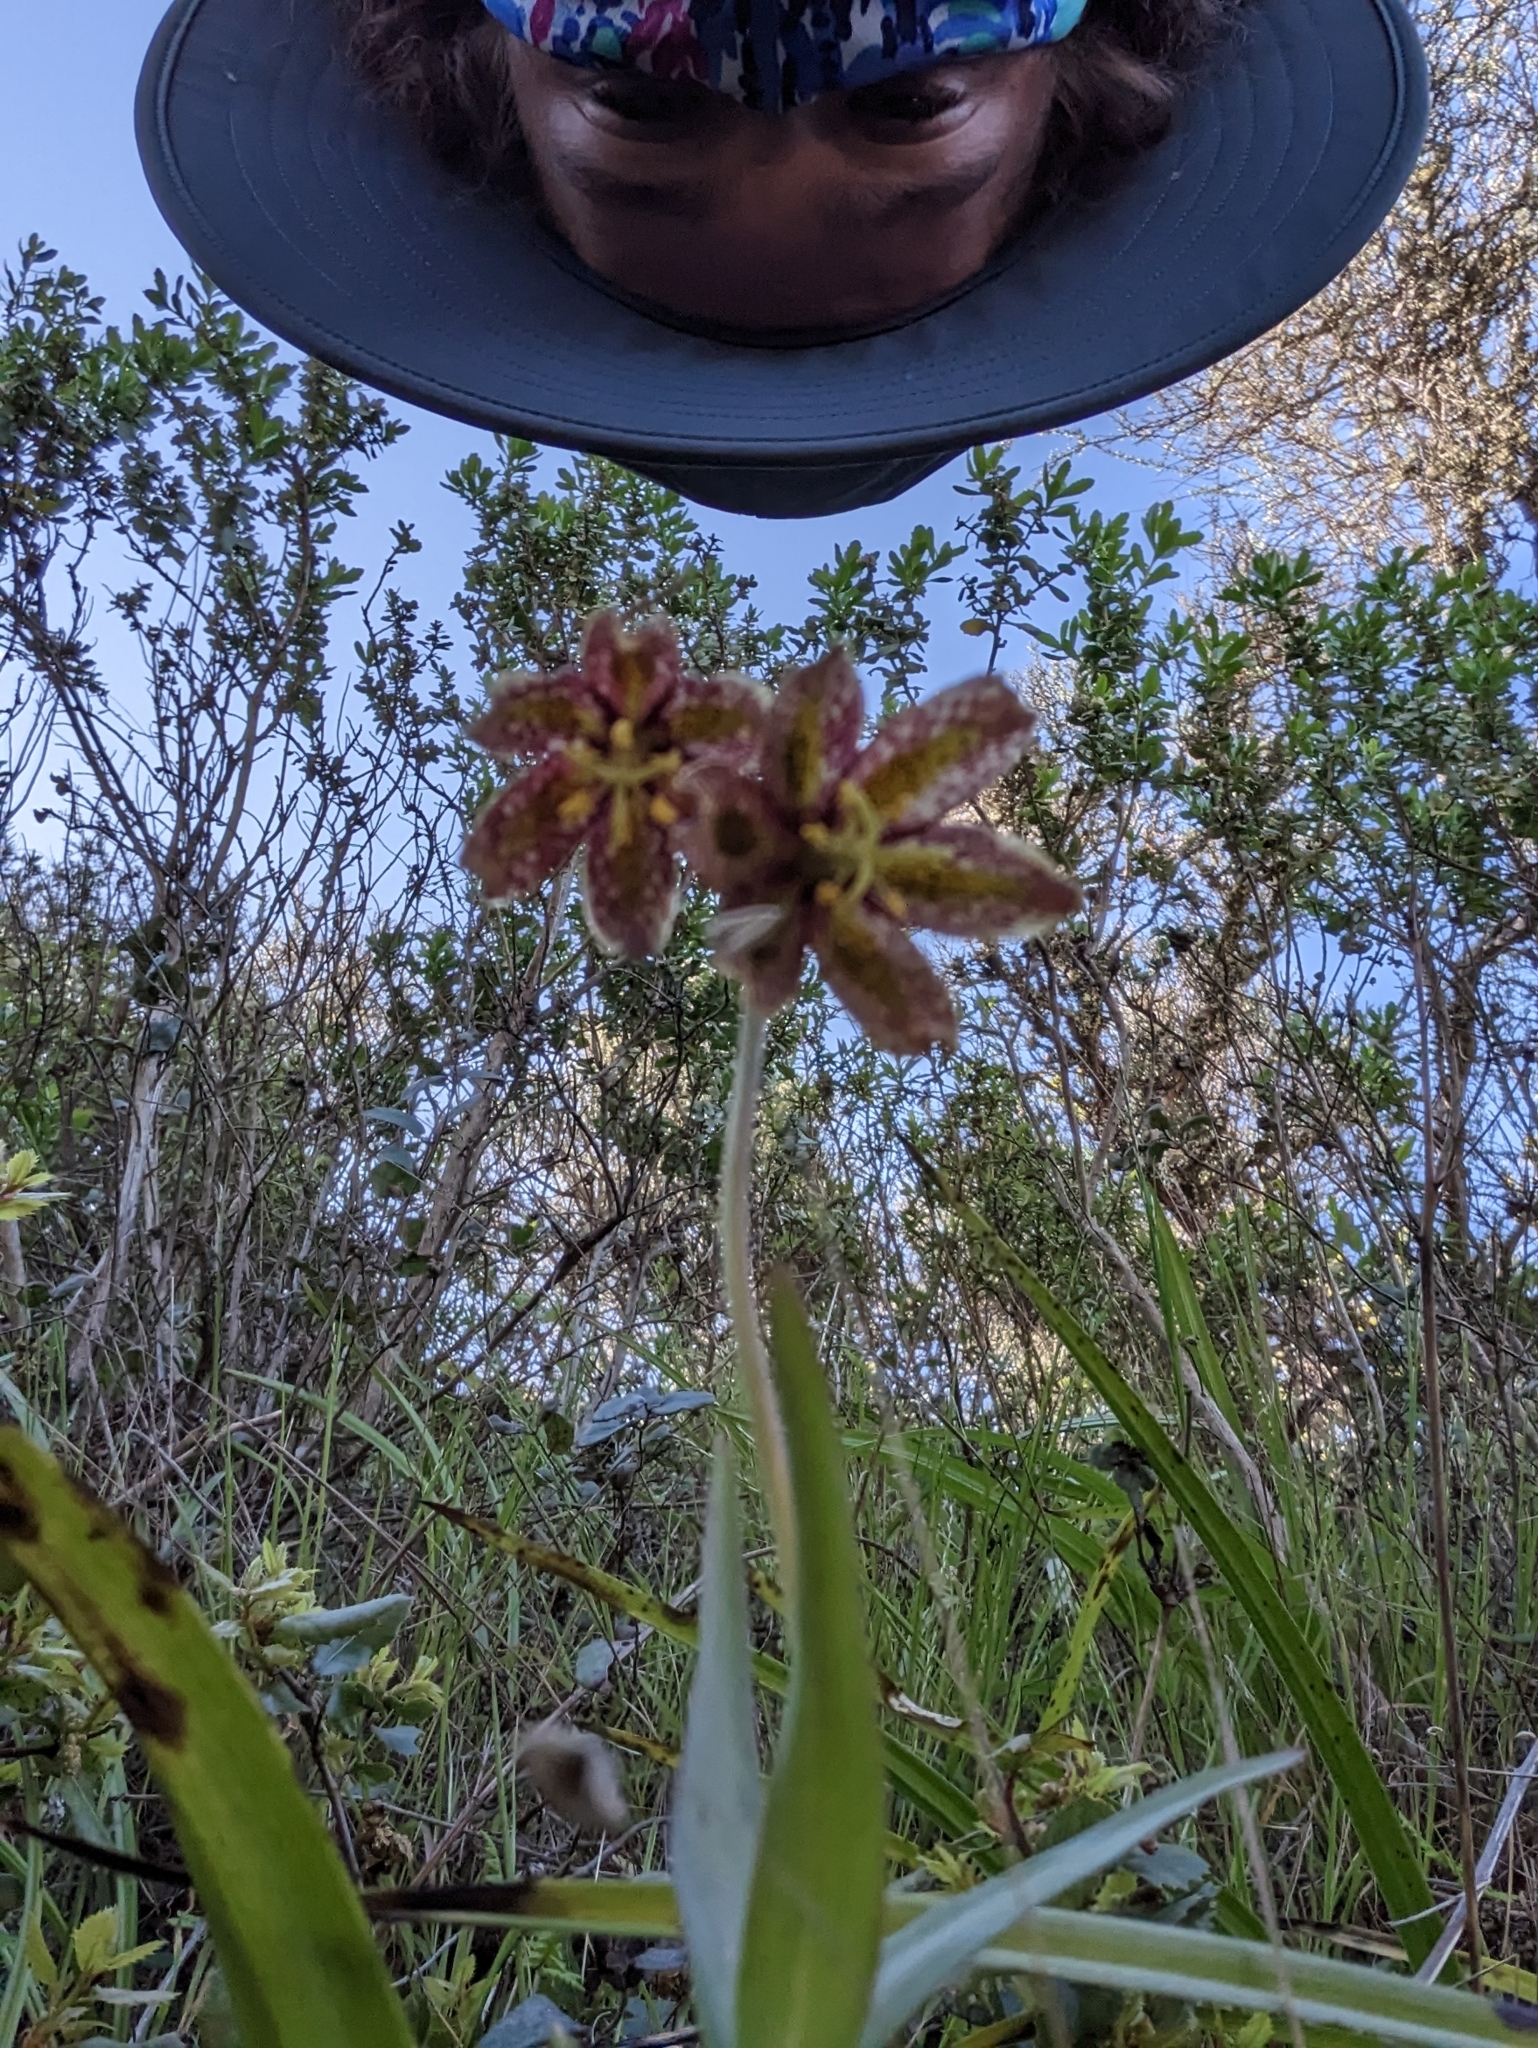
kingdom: Plantae
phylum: Tracheophyta
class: Liliopsida
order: Liliales
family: Liliaceae
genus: Fritillaria
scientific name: Fritillaria affinis
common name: Ojai fritillary
